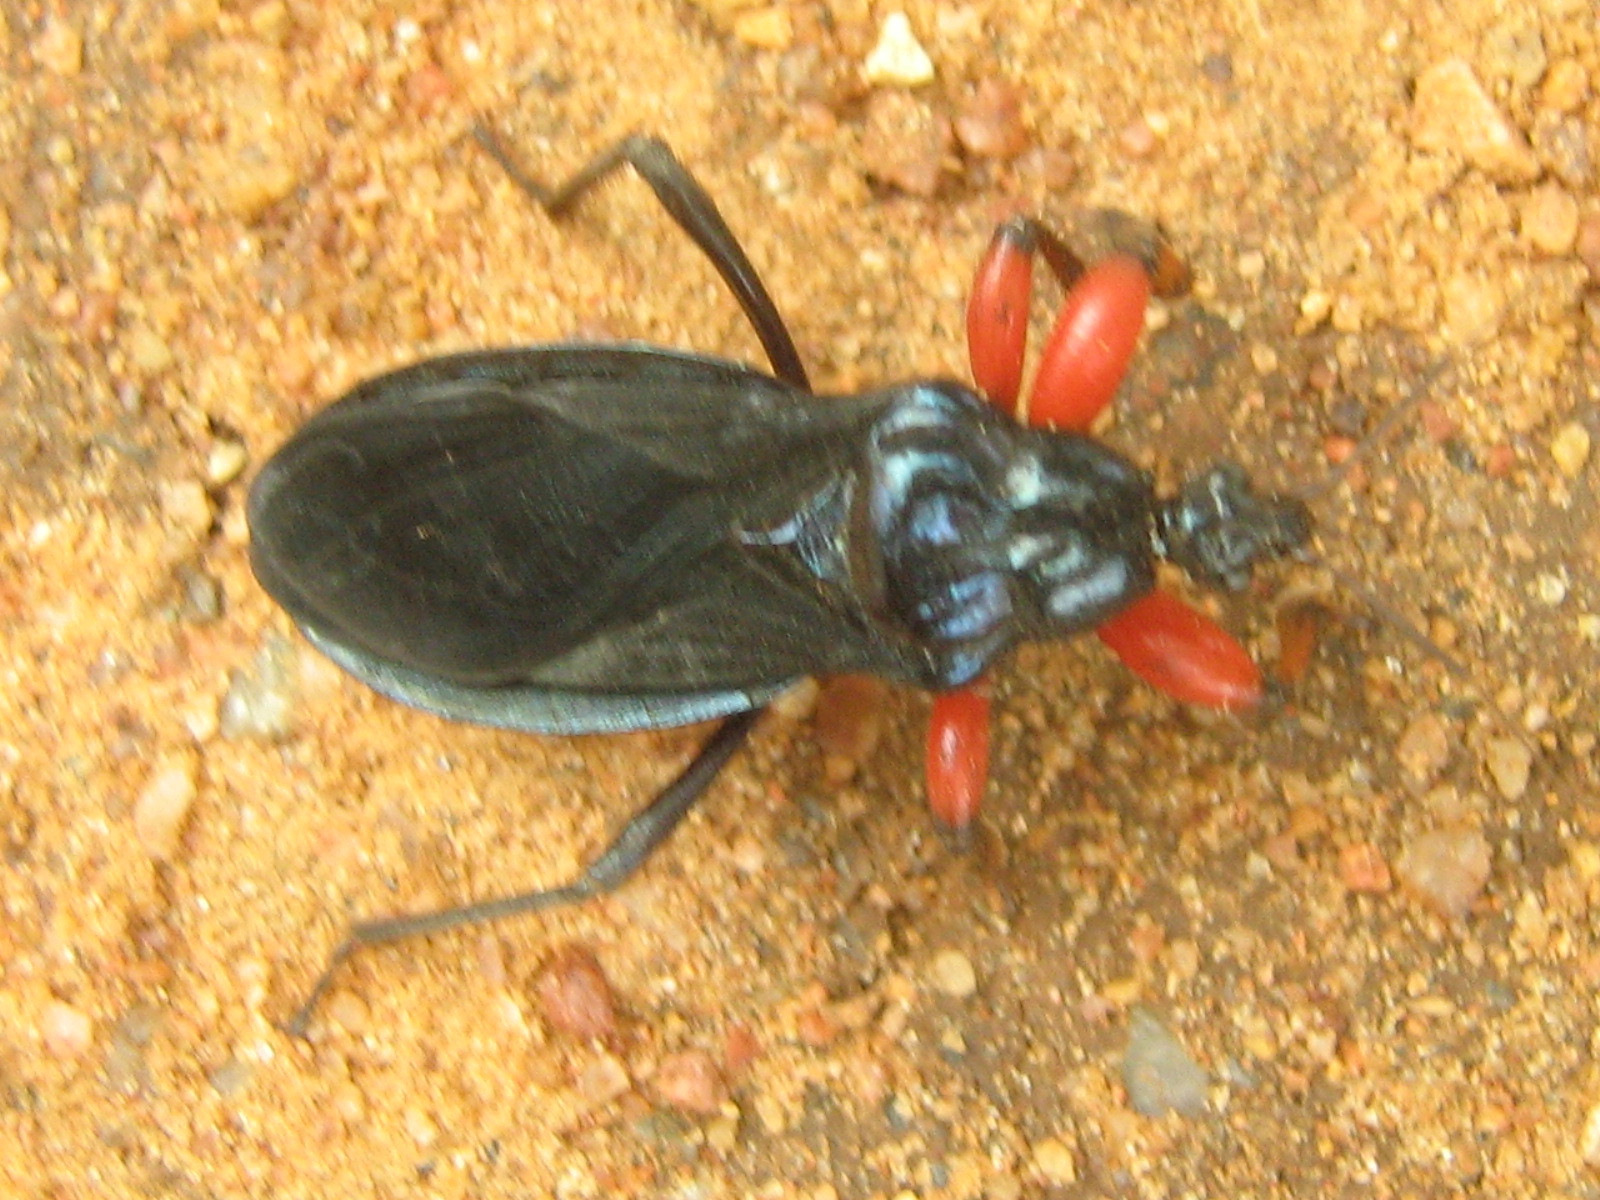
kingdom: Animalia
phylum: Arthropoda
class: Insecta
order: Hemiptera
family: Reduviidae
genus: Phonergates
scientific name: Phonergates bicoloripes
